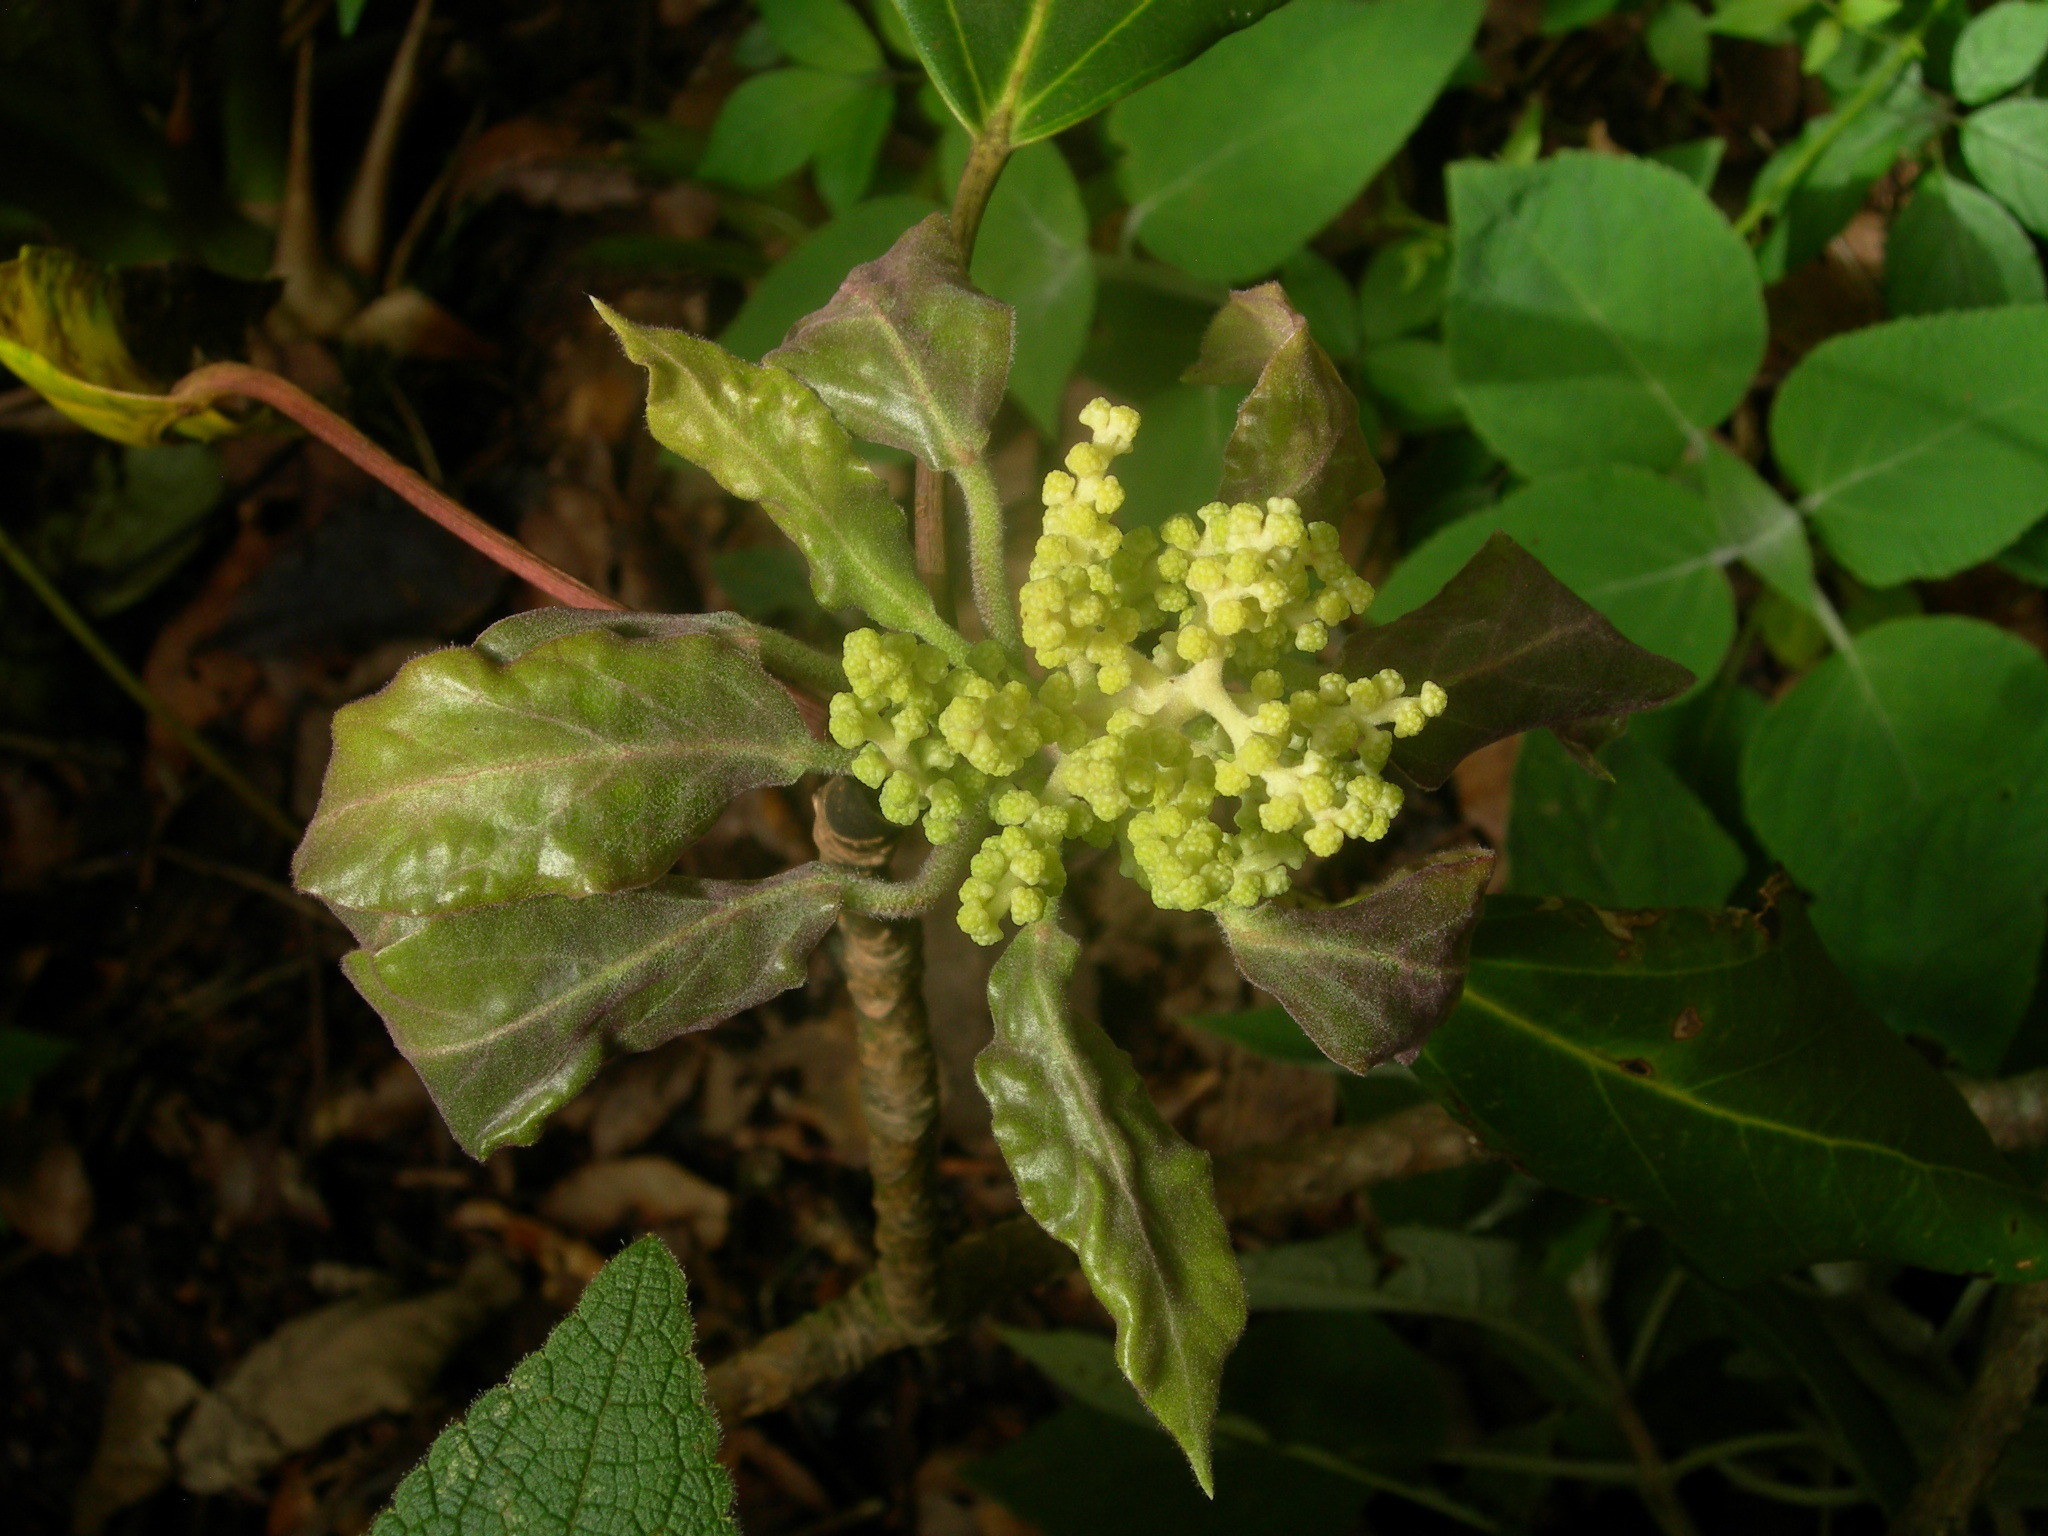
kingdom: Plantae
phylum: Tracheophyta
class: Magnoliopsida
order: Apiales
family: Araliaceae
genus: Oreopanax
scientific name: Oreopanax arcanus
